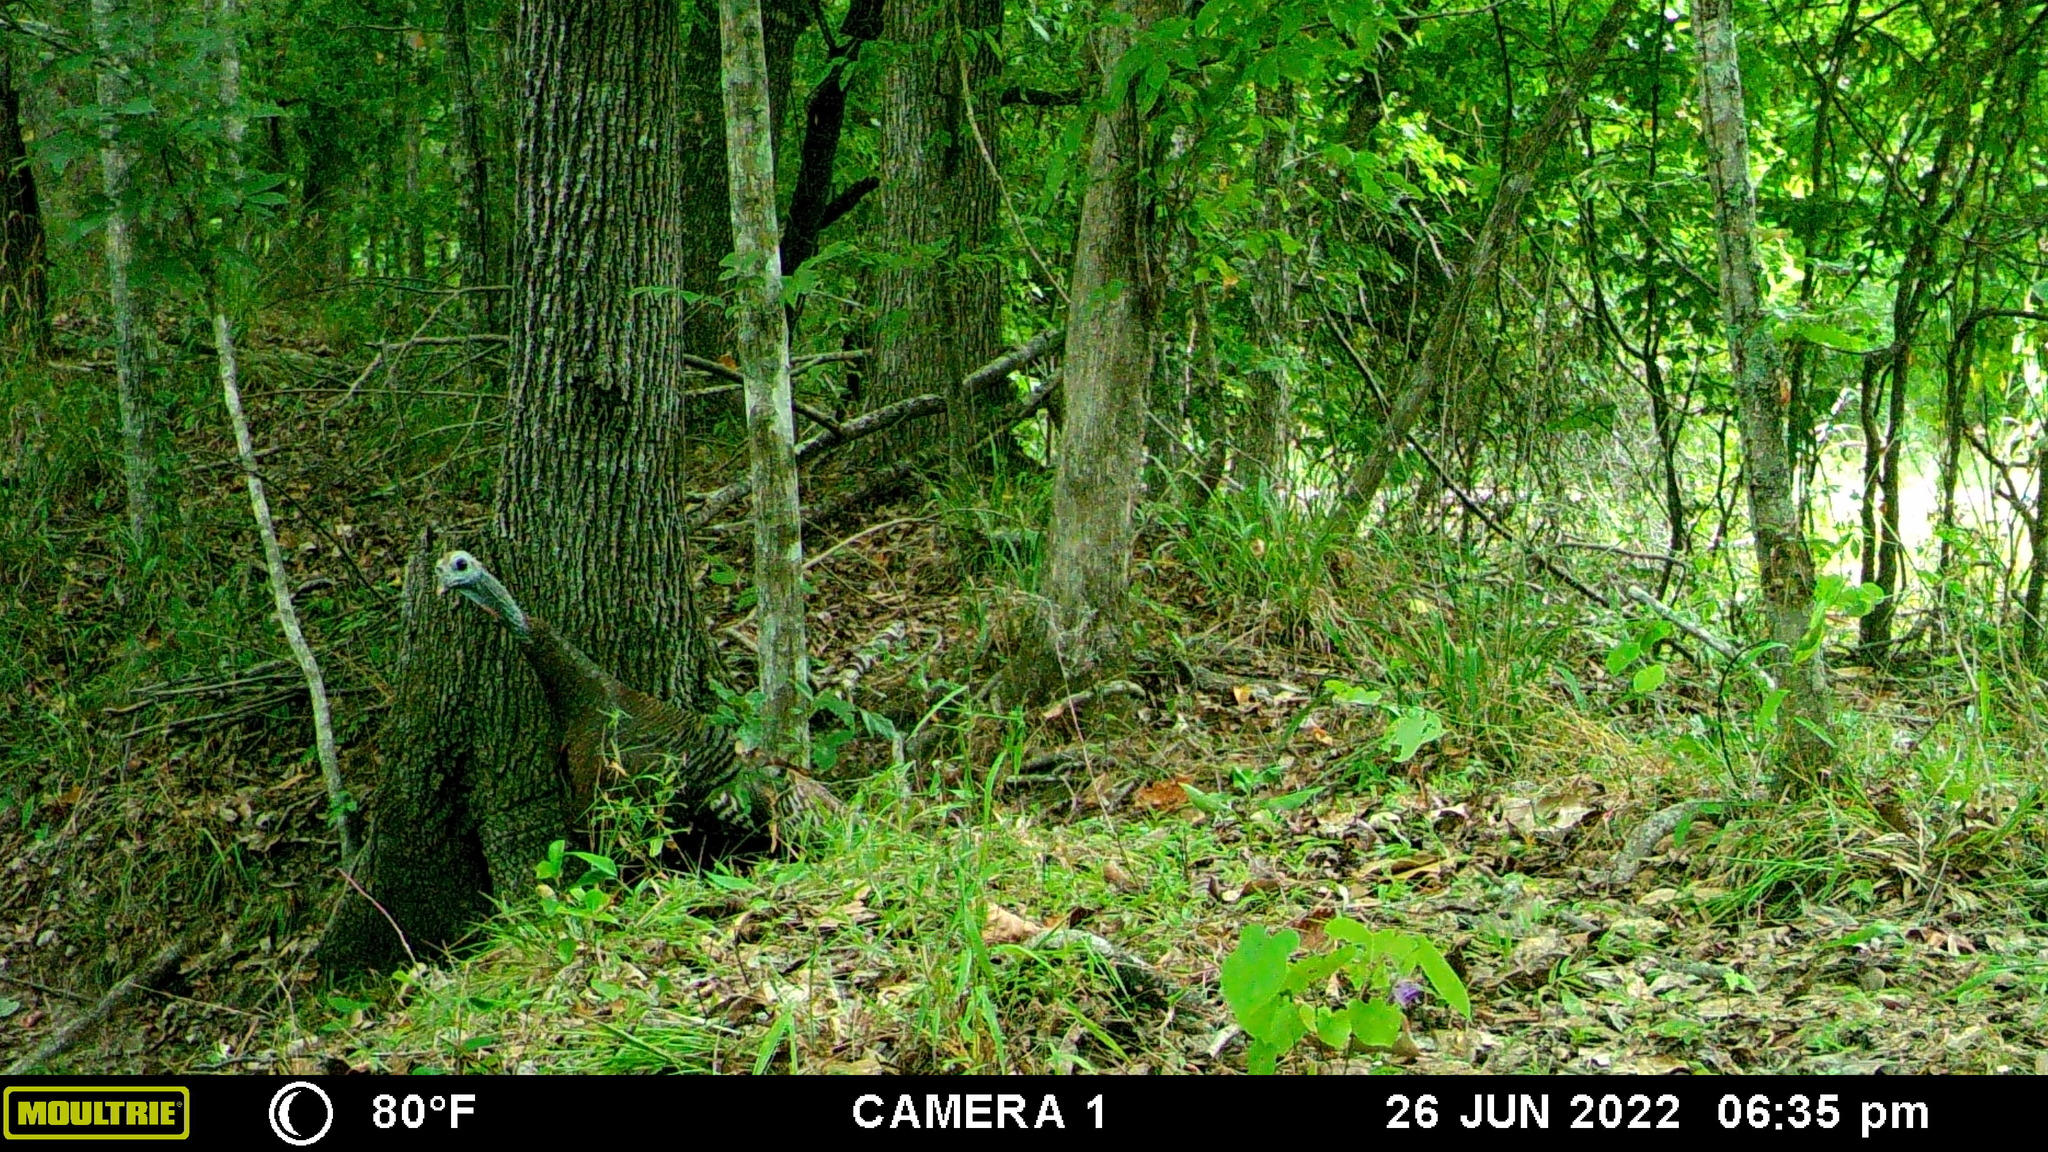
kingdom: Animalia
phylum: Chordata
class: Aves
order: Galliformes
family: Phasianidae
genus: Meleagris
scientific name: Meleagris gallopavo
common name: Wild turkey
